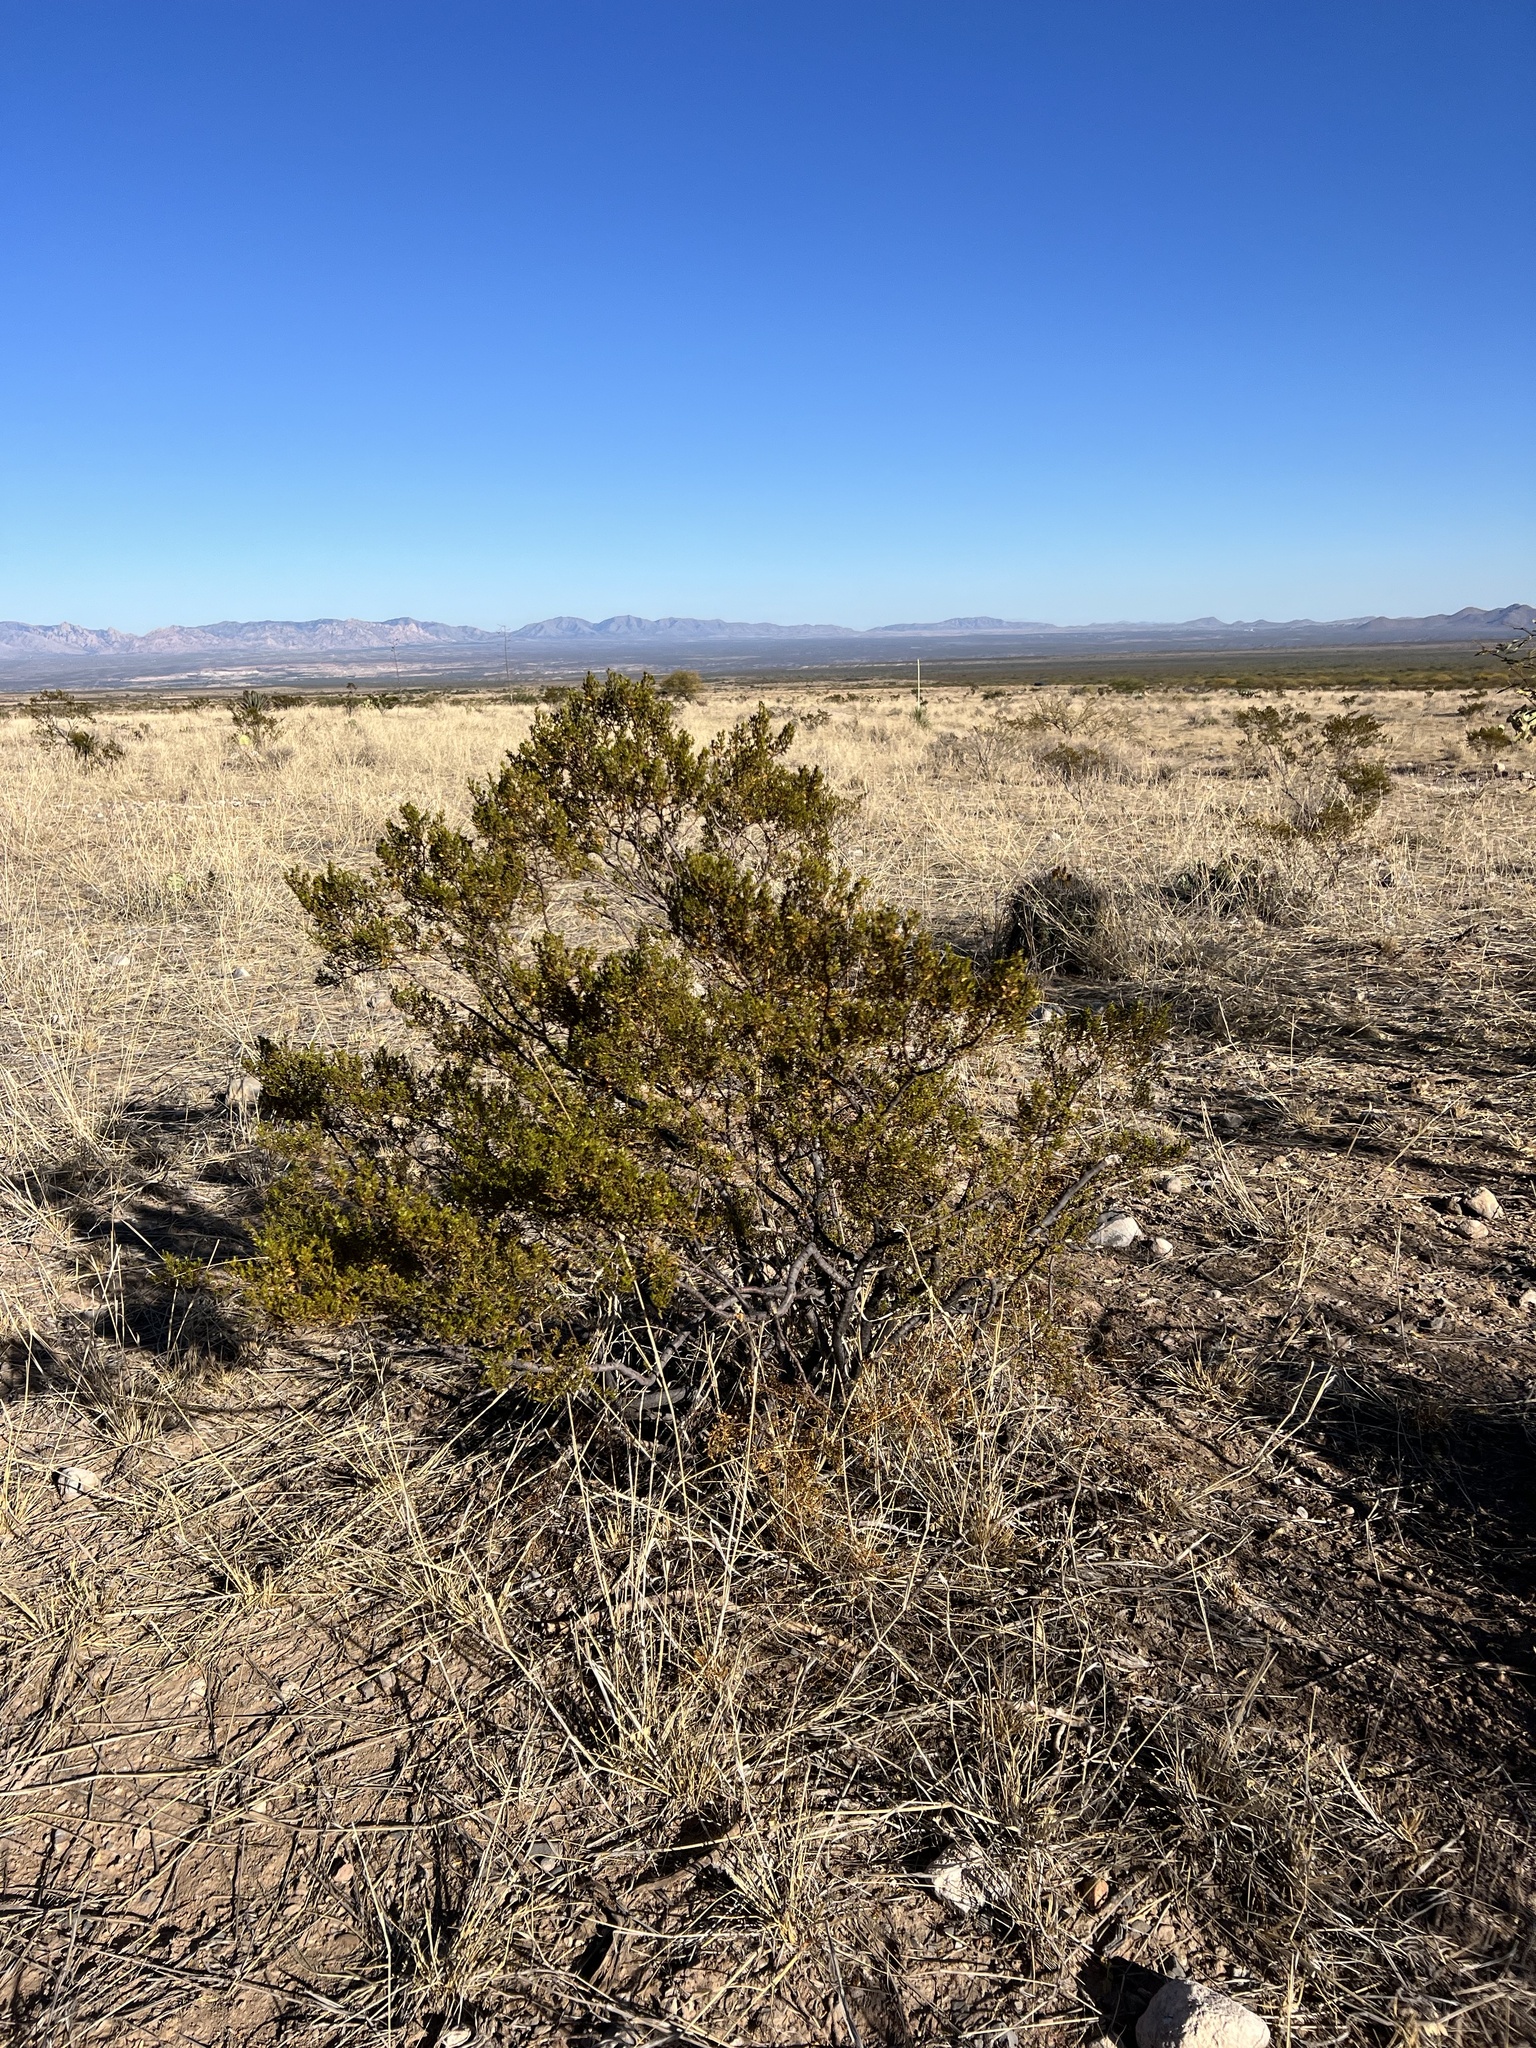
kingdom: Plantae
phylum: Tracheophyta
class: Magnoliopsida
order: Zygophyllales
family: Zygophyllaceae
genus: Larrea
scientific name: Larrea tridentata
